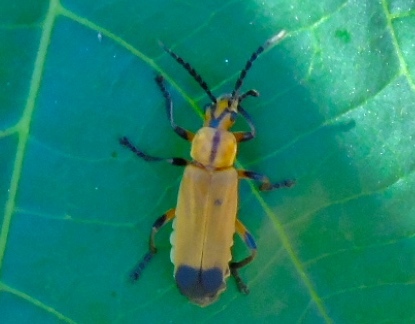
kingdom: Animalia
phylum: Arthropoda
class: Insecta
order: Coleoptera
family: Cantharidae
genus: Daiphron
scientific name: Daiphron proteum
